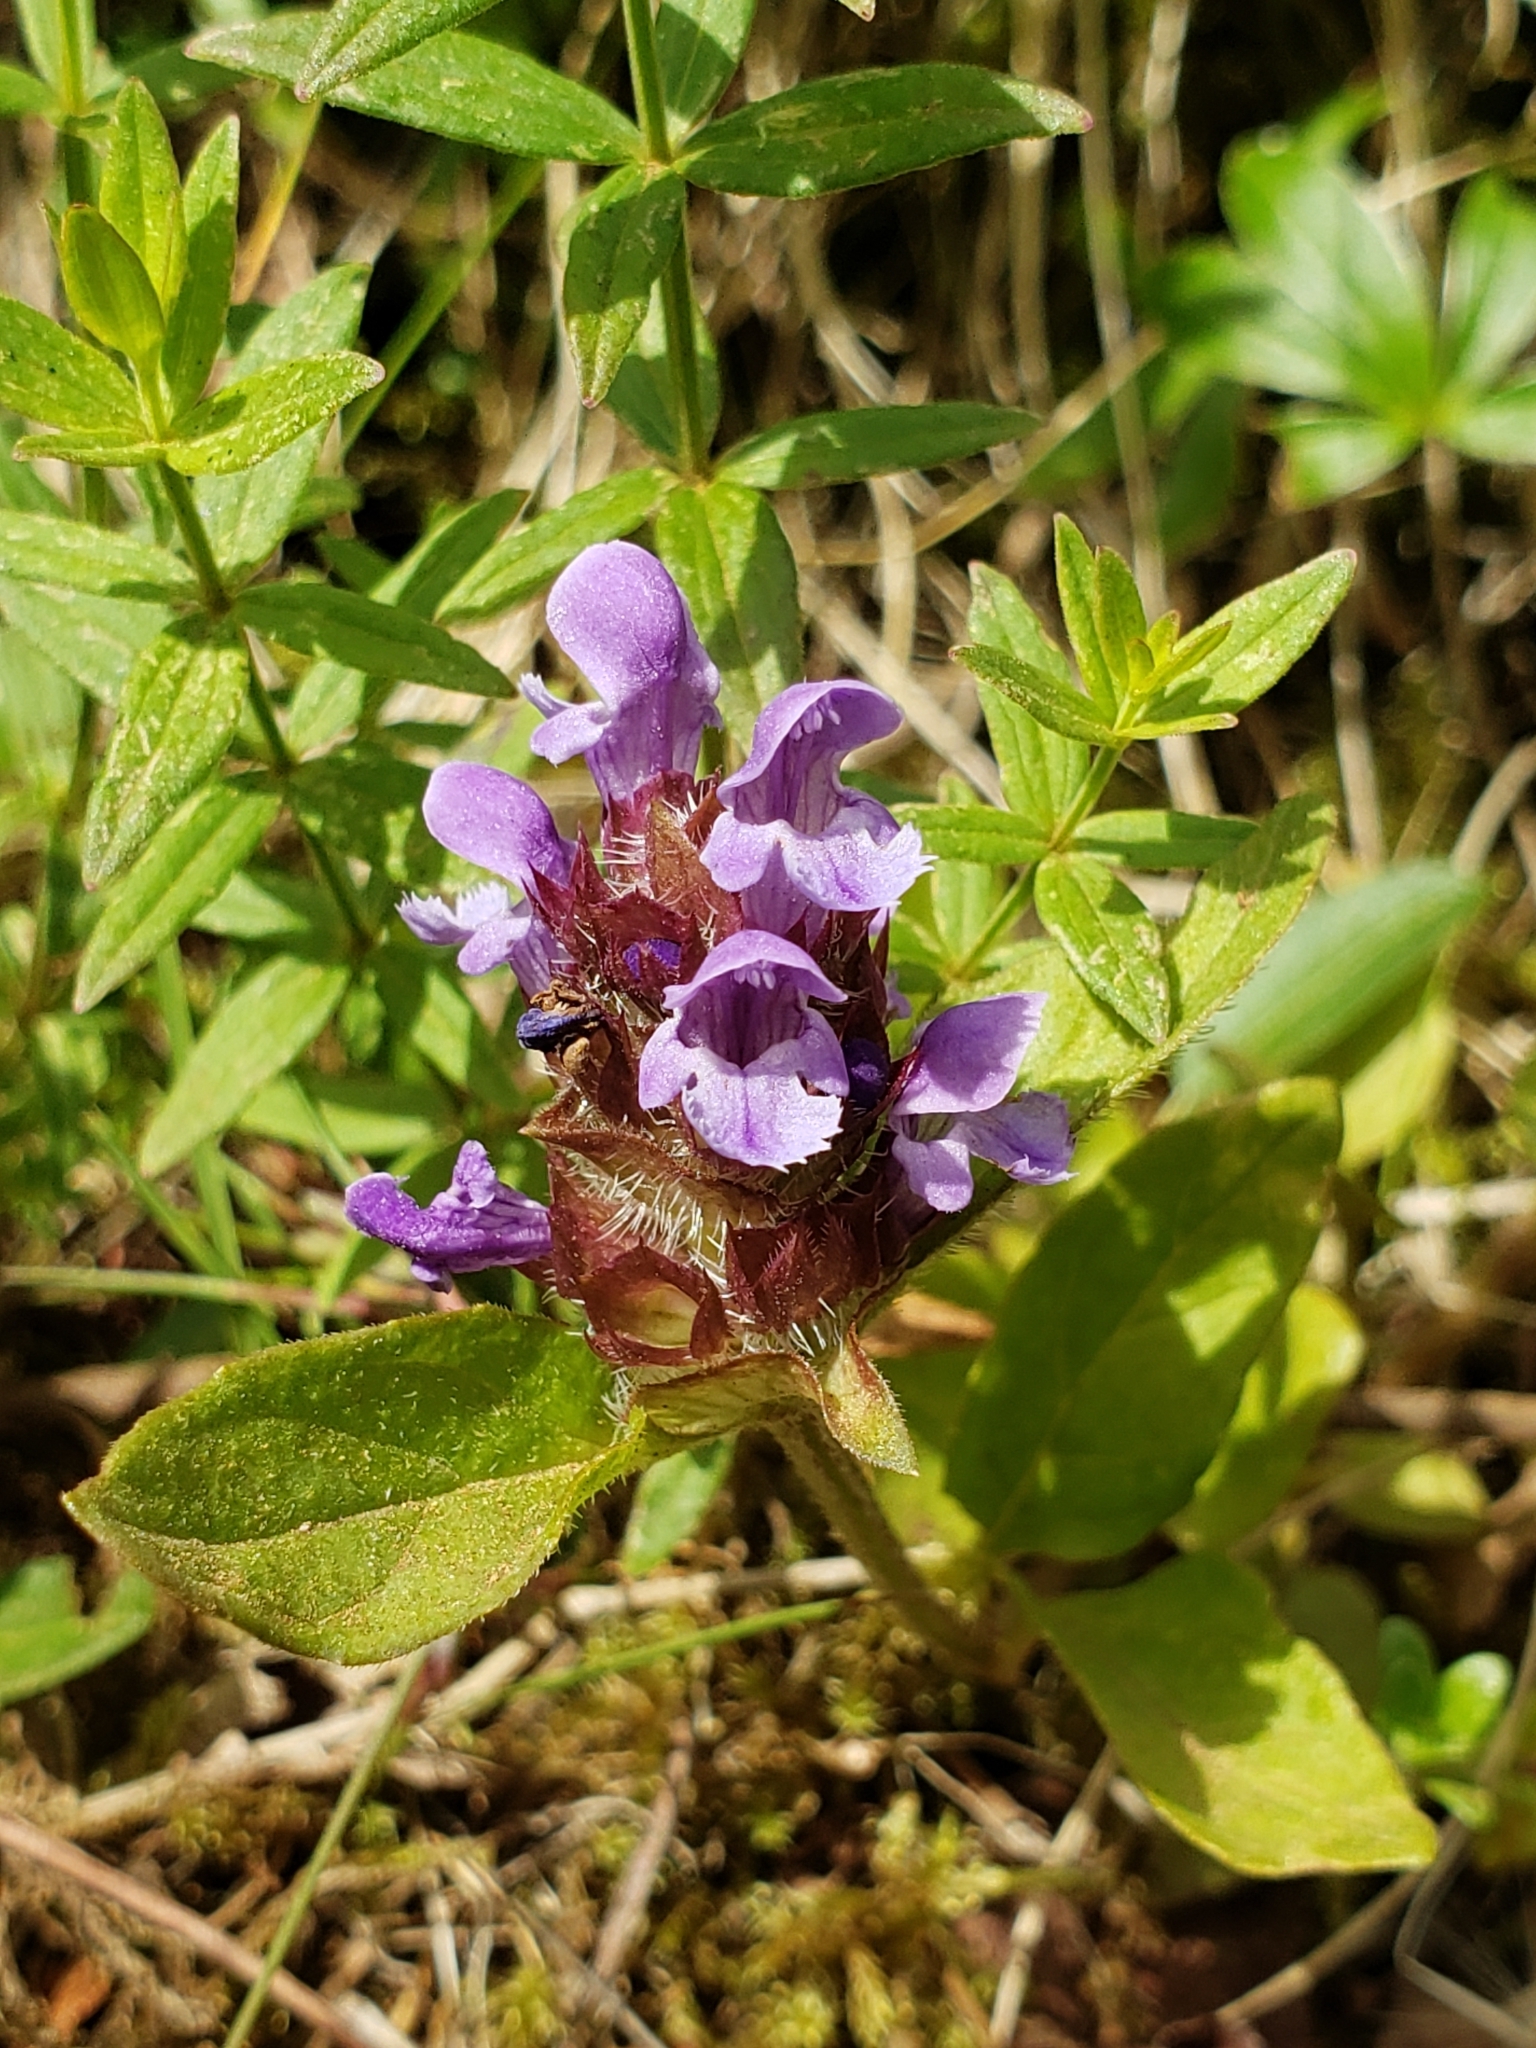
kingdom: Plantae
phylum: Tracheophyta
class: Magnoliopsida
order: Lamiales
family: Lamiaceae
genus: Prunella
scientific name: Prunella vulgaris
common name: Heal-all
